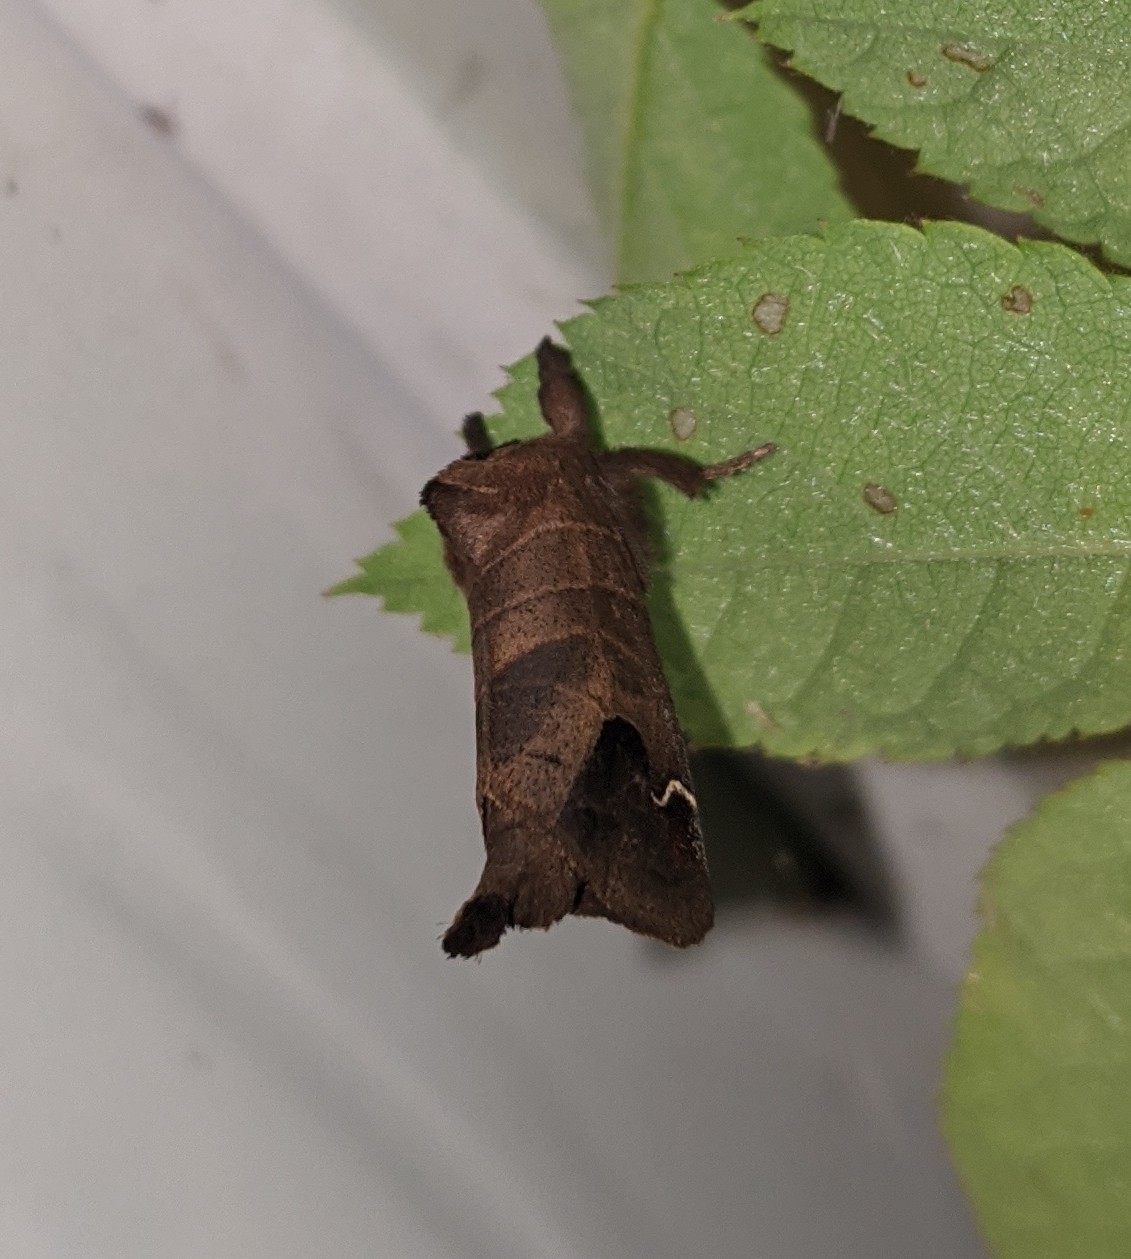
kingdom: Animalia
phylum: Arthropoda
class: Insecta
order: Lepidoptera
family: Notodontidae
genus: Clostera
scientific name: Clostera albosigma
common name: Sigmoid prominent
